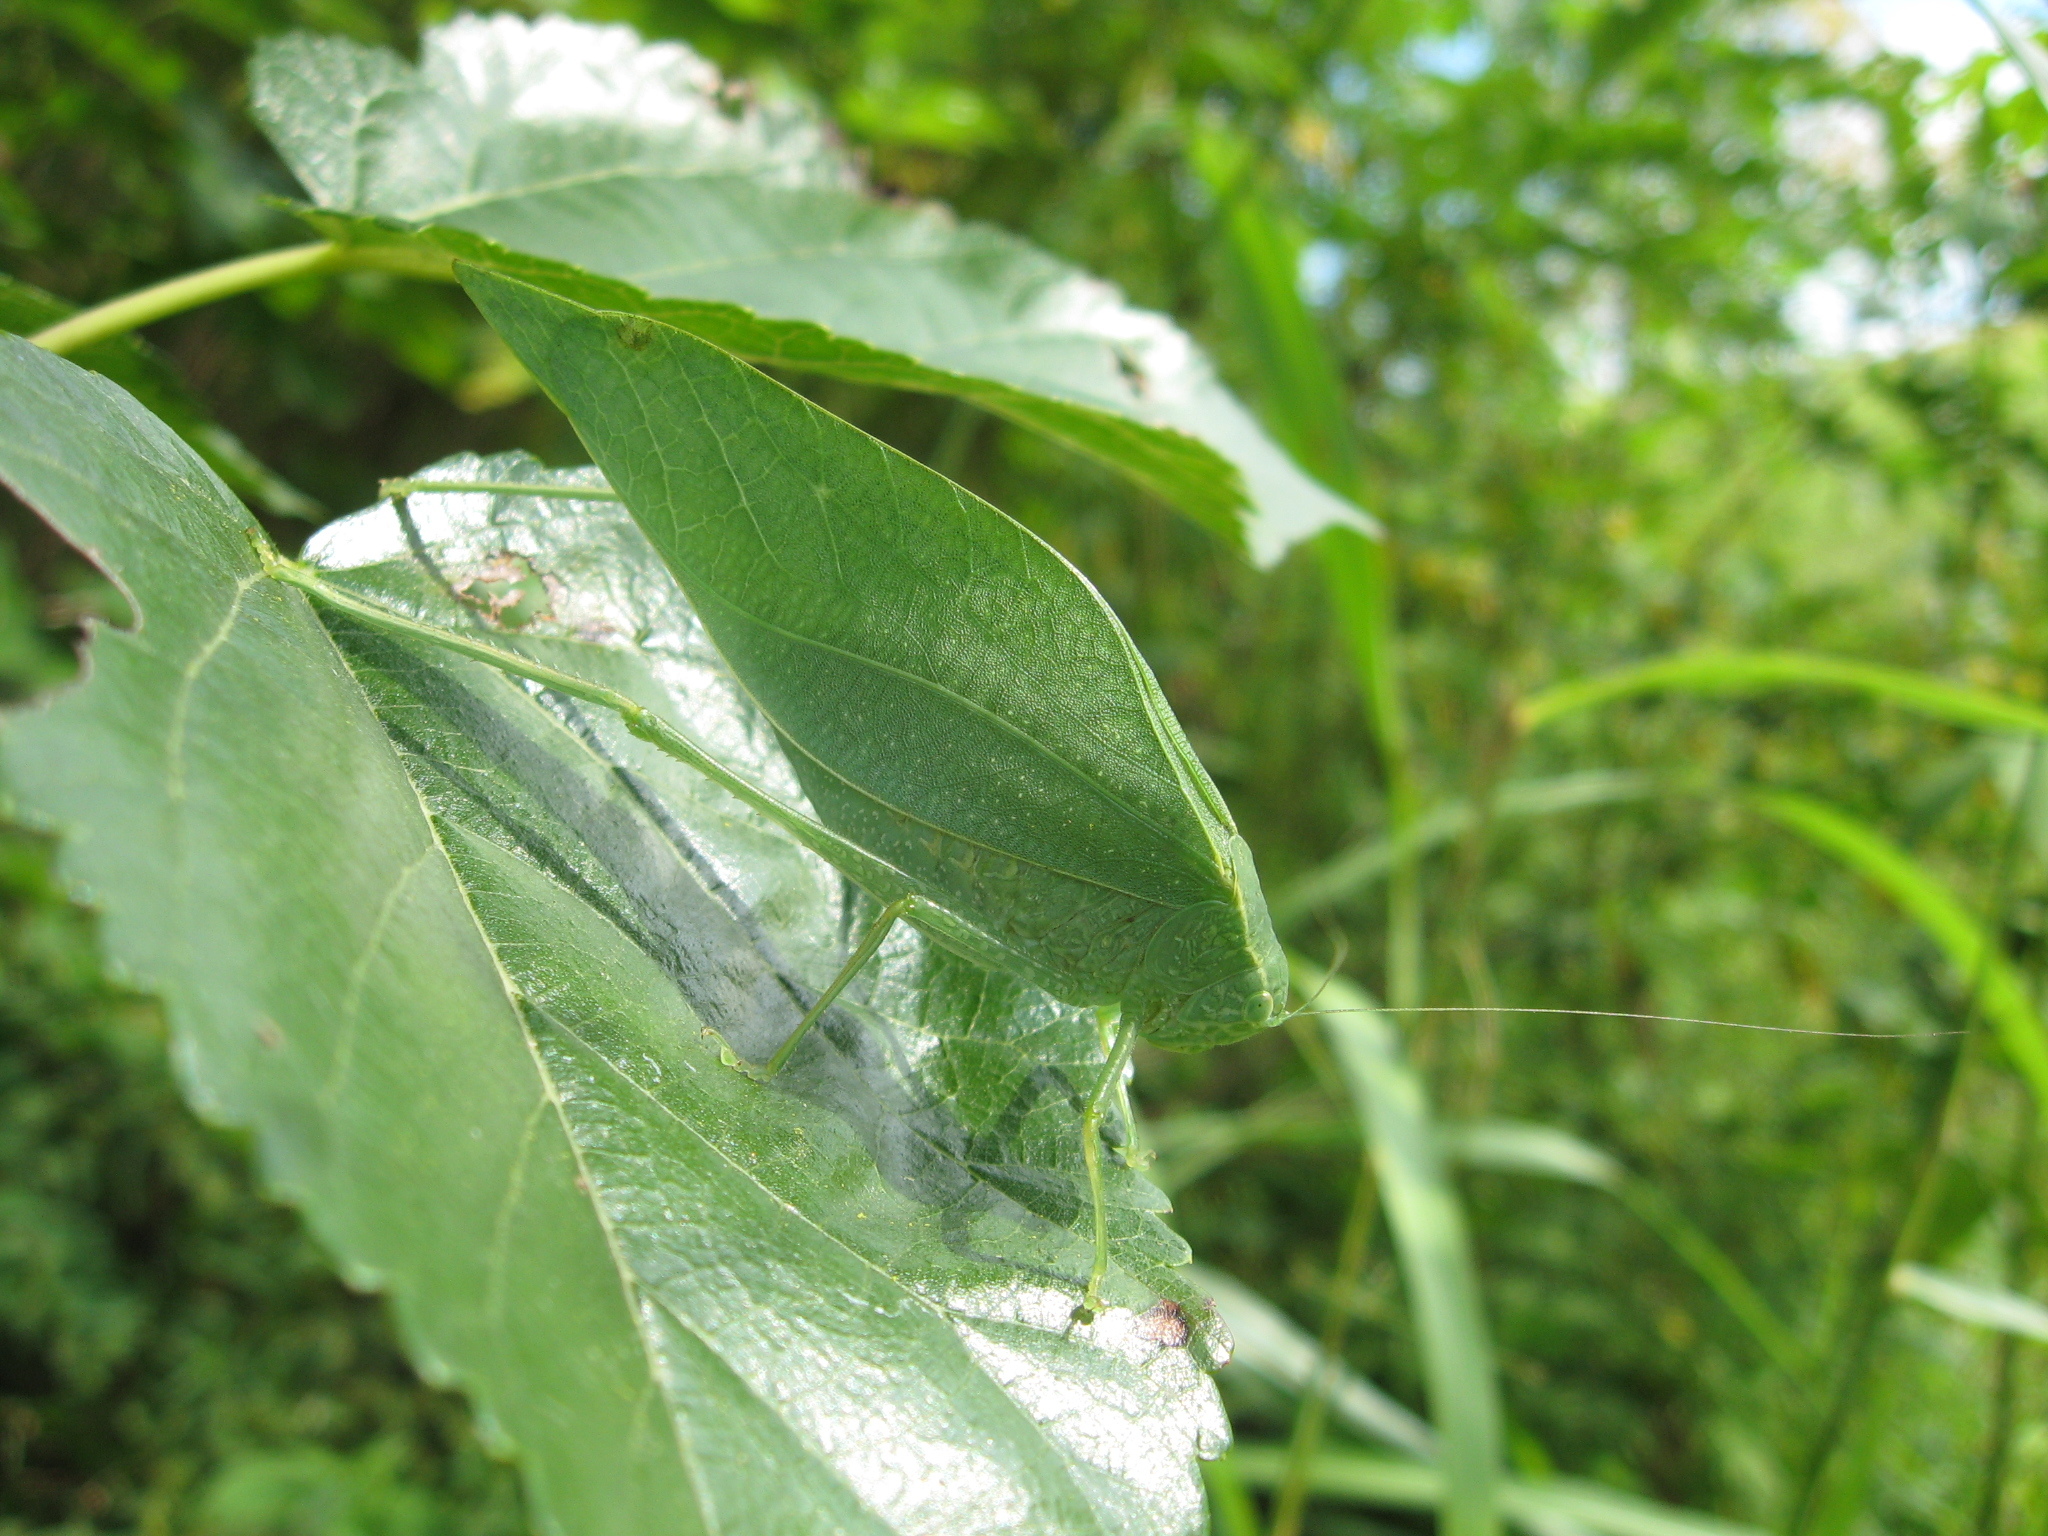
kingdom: Animalia
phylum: Arthropoda
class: Insecta
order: Orthoptera
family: Tettigoniidae
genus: Microcentrum
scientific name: Microcentrum rhombifolium
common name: Broad-winged katydid
